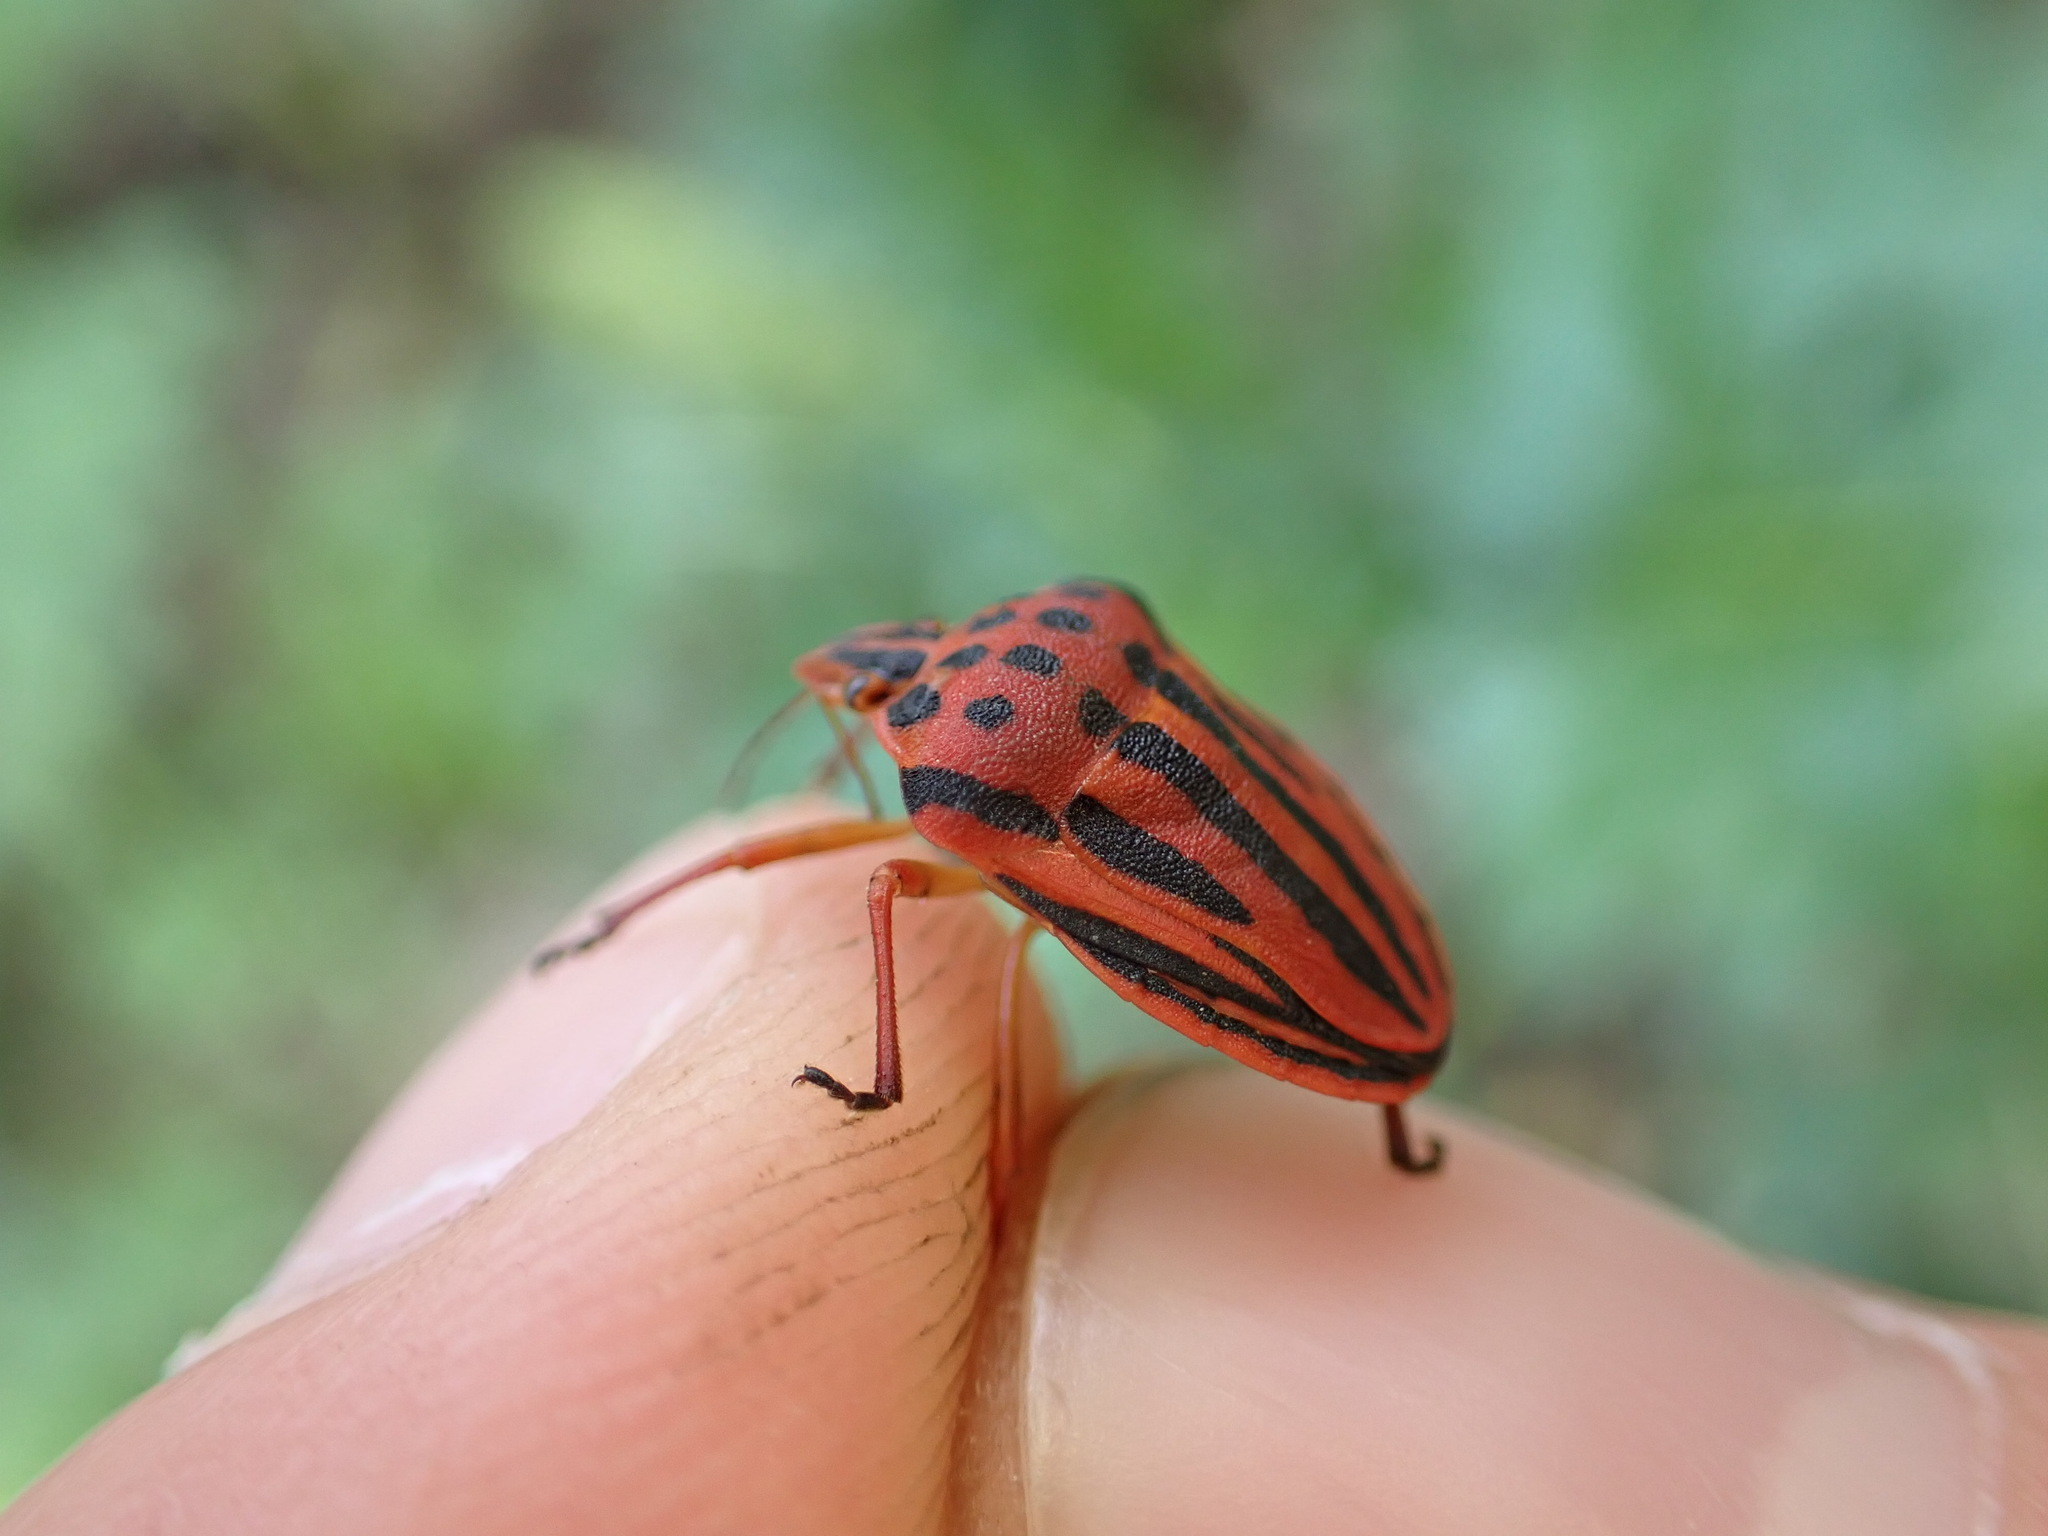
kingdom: Animalia
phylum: Arthropoda
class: Insecta
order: Hemiptera
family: Pentatomidae
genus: Graphosoma
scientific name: Graphosoma semipunctatum
